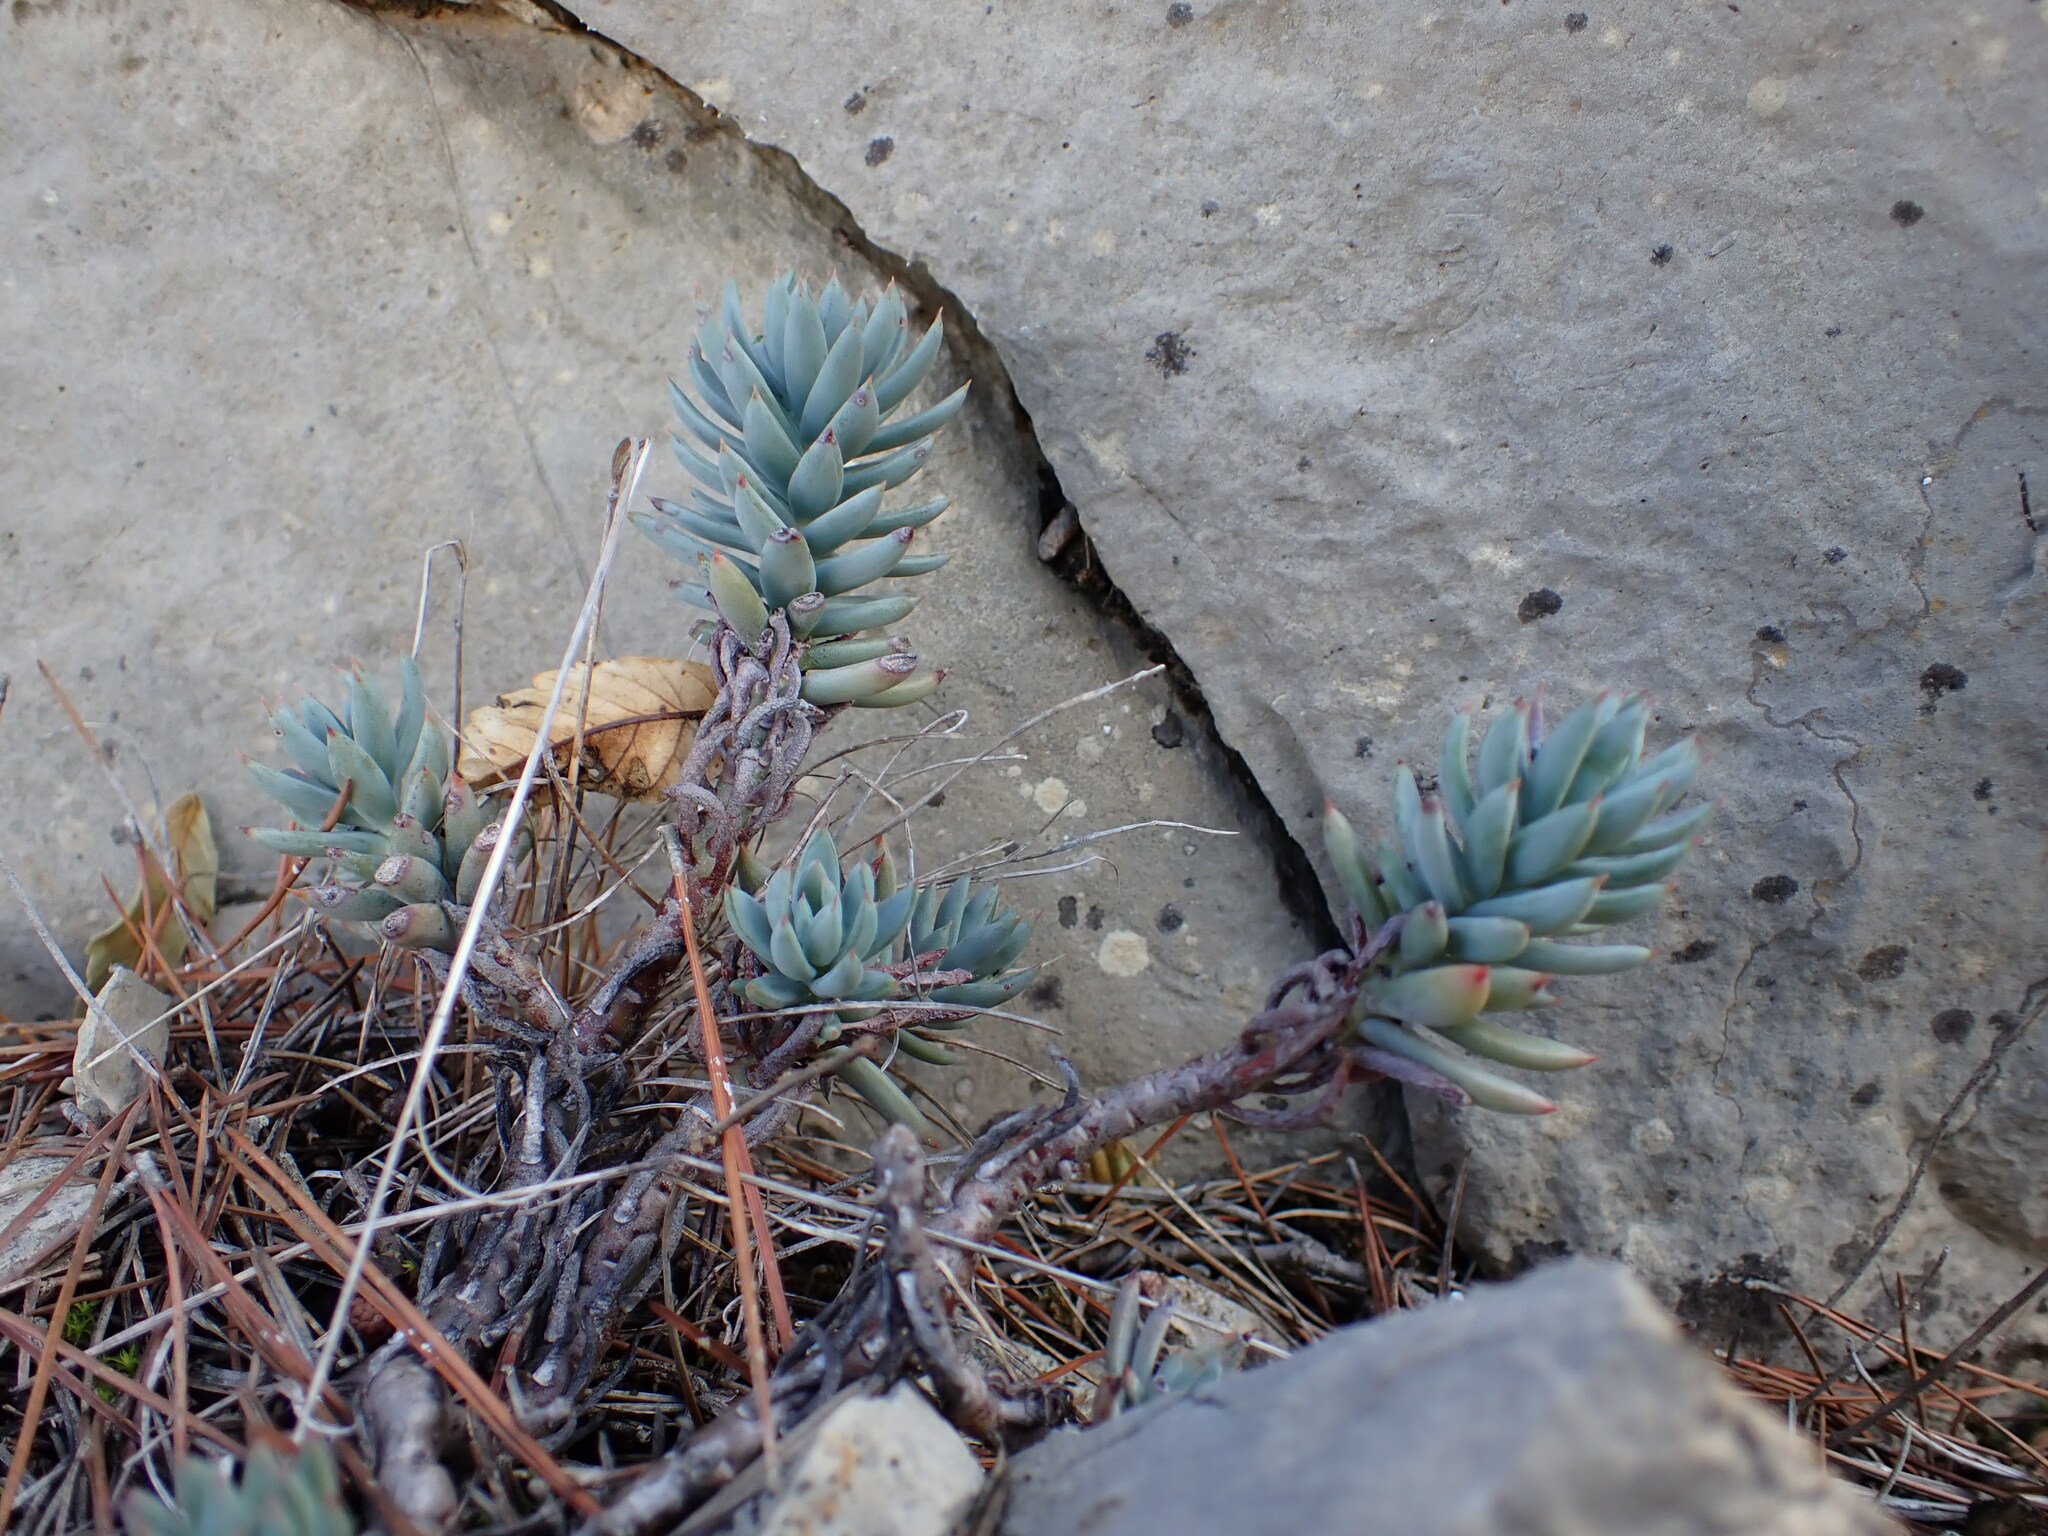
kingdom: Plantae
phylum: Tracheophyta
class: Magnoliopsida
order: Saxifragales
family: Crassulaceae
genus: Petrosedum
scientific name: Petrosedum sediforme
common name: Pale stonecrop
